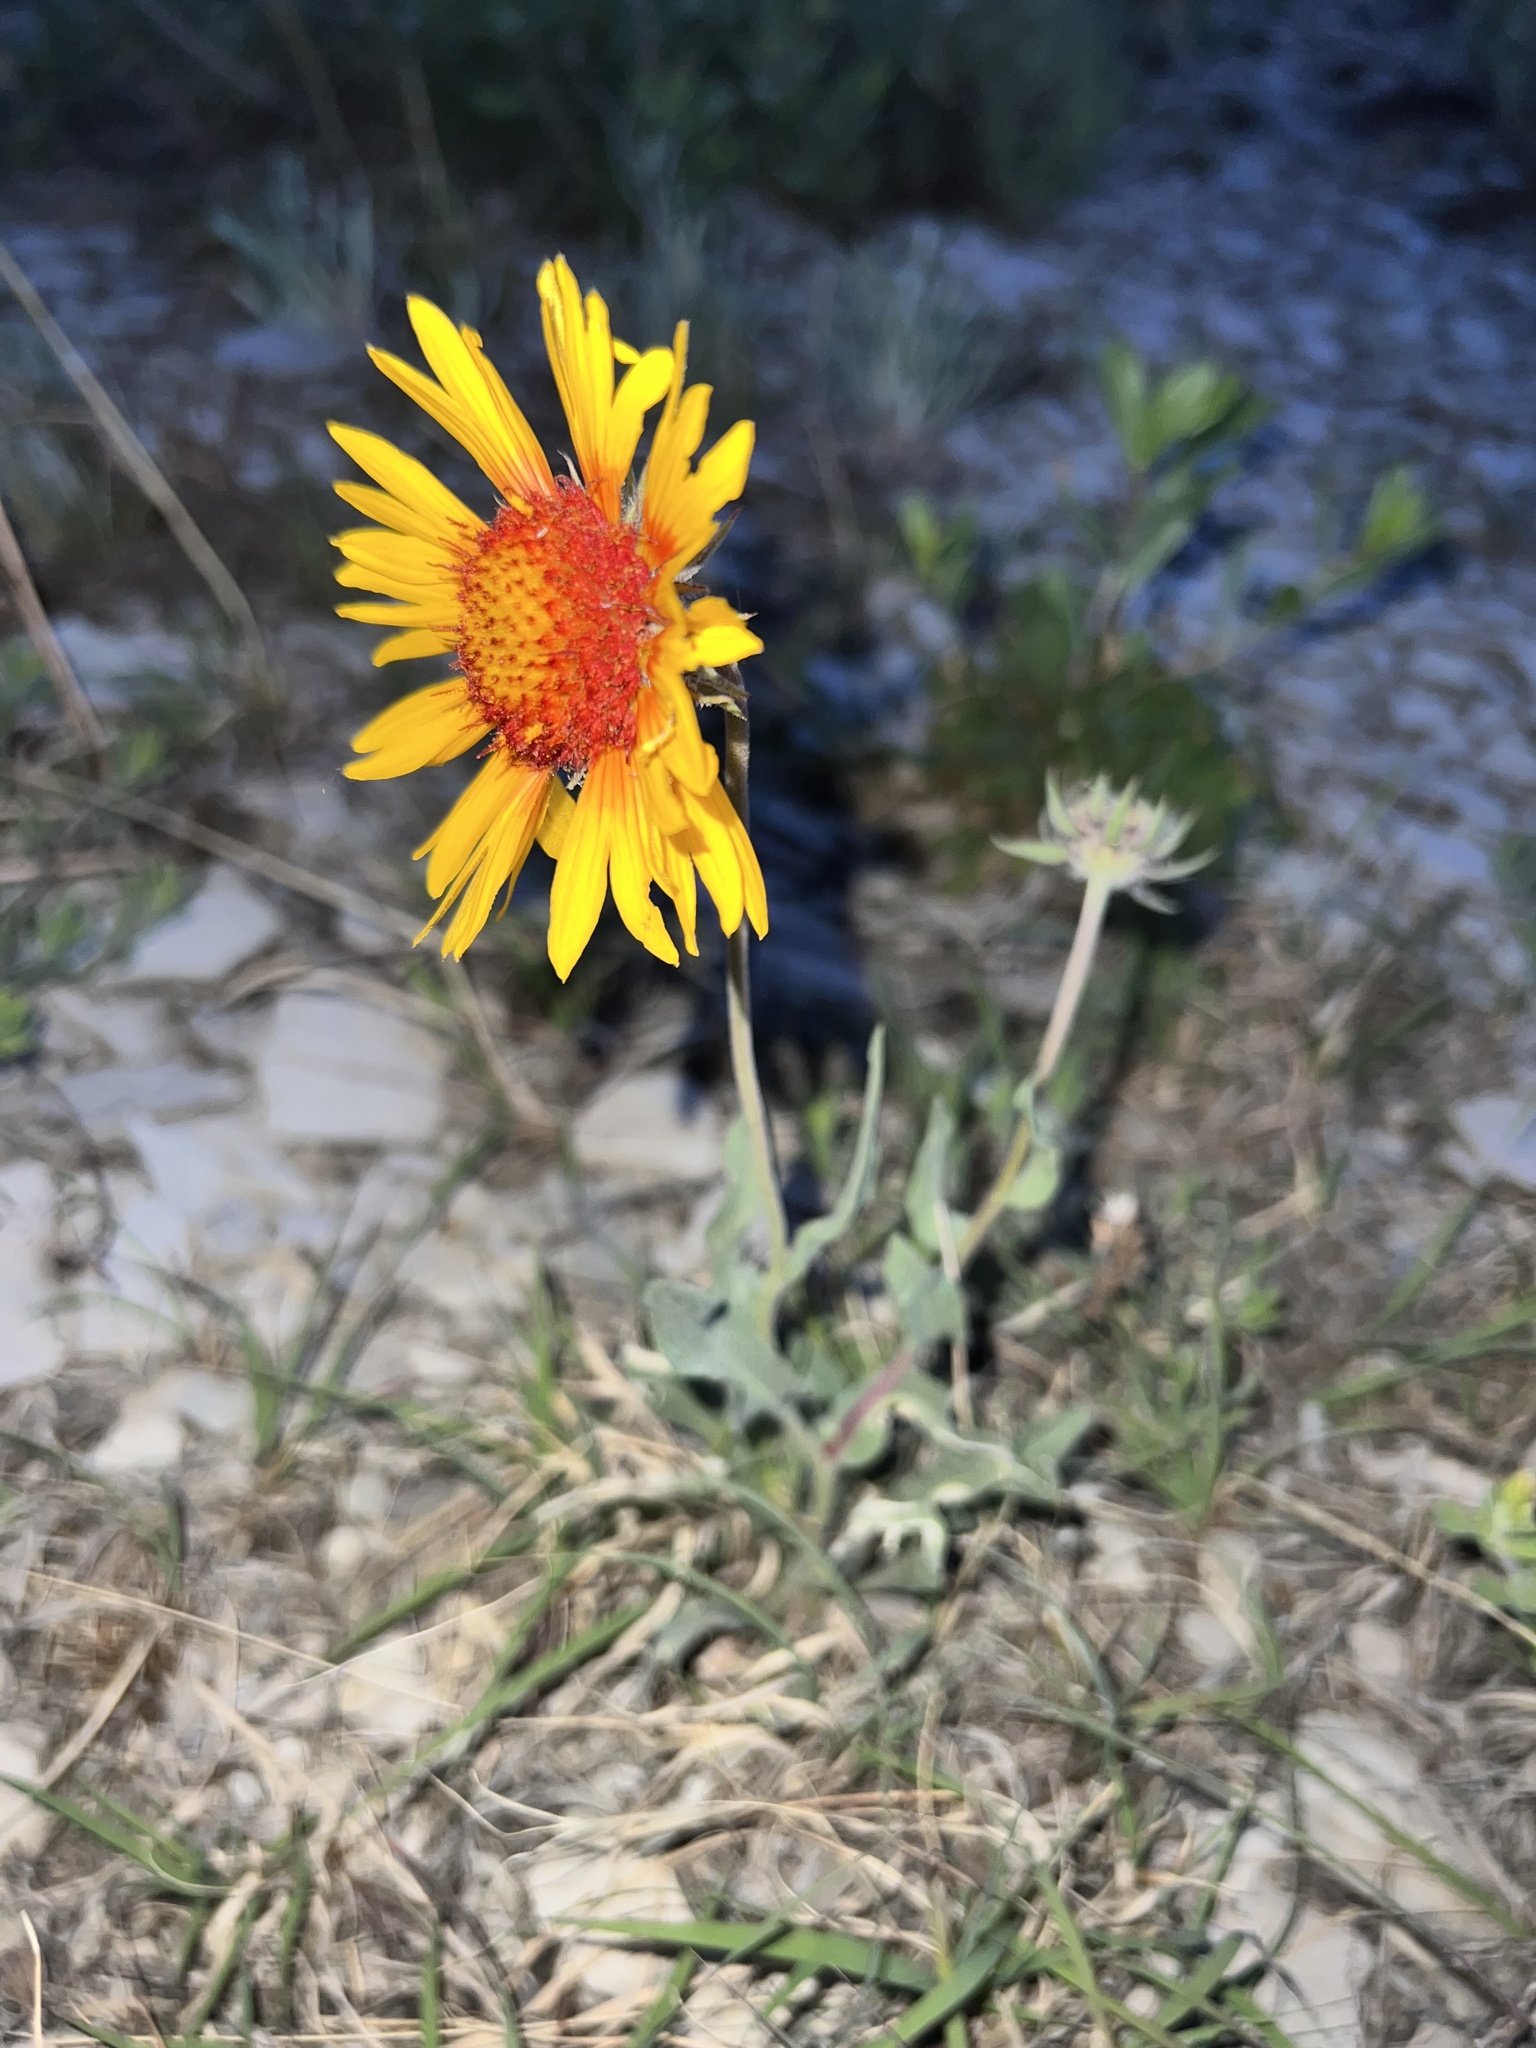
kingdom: Plantae
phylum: Tracheophyta
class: Magnoliopsida
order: Asterales
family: Asteraceae
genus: Gaillardia
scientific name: Gaillardia aristata
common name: Blanket-flower
